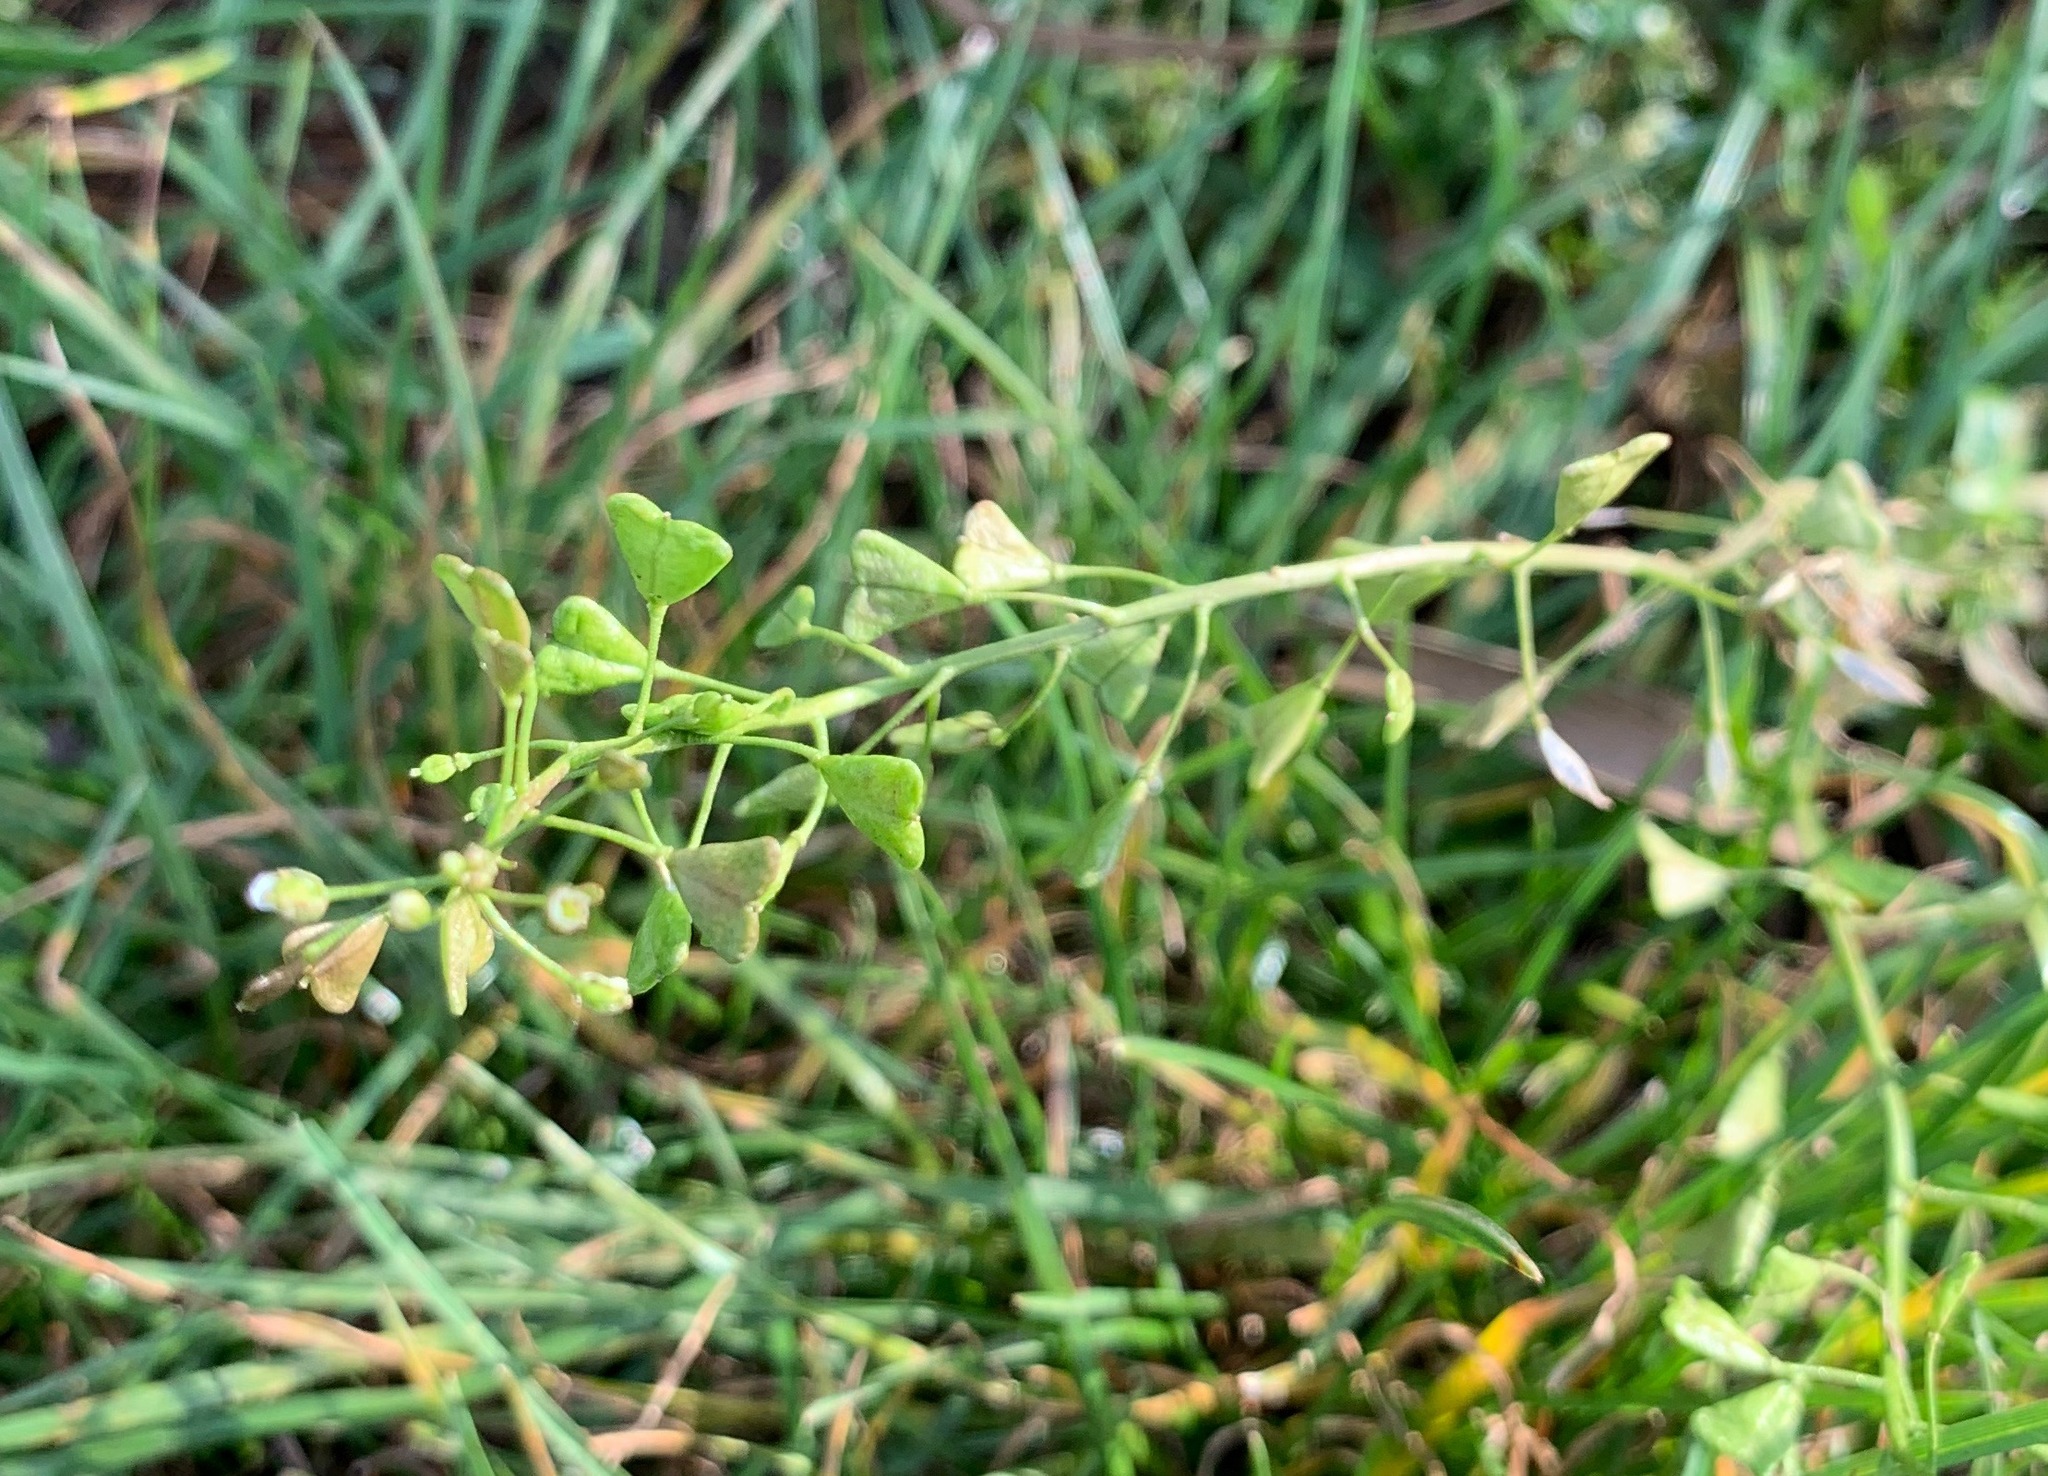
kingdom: Plantae
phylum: Tracheophyta
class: Magnoliopsida
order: Brassicales
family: Brassicaceae
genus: Capsella
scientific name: Capsella bursa-pastoris
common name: Shepherd's purse
